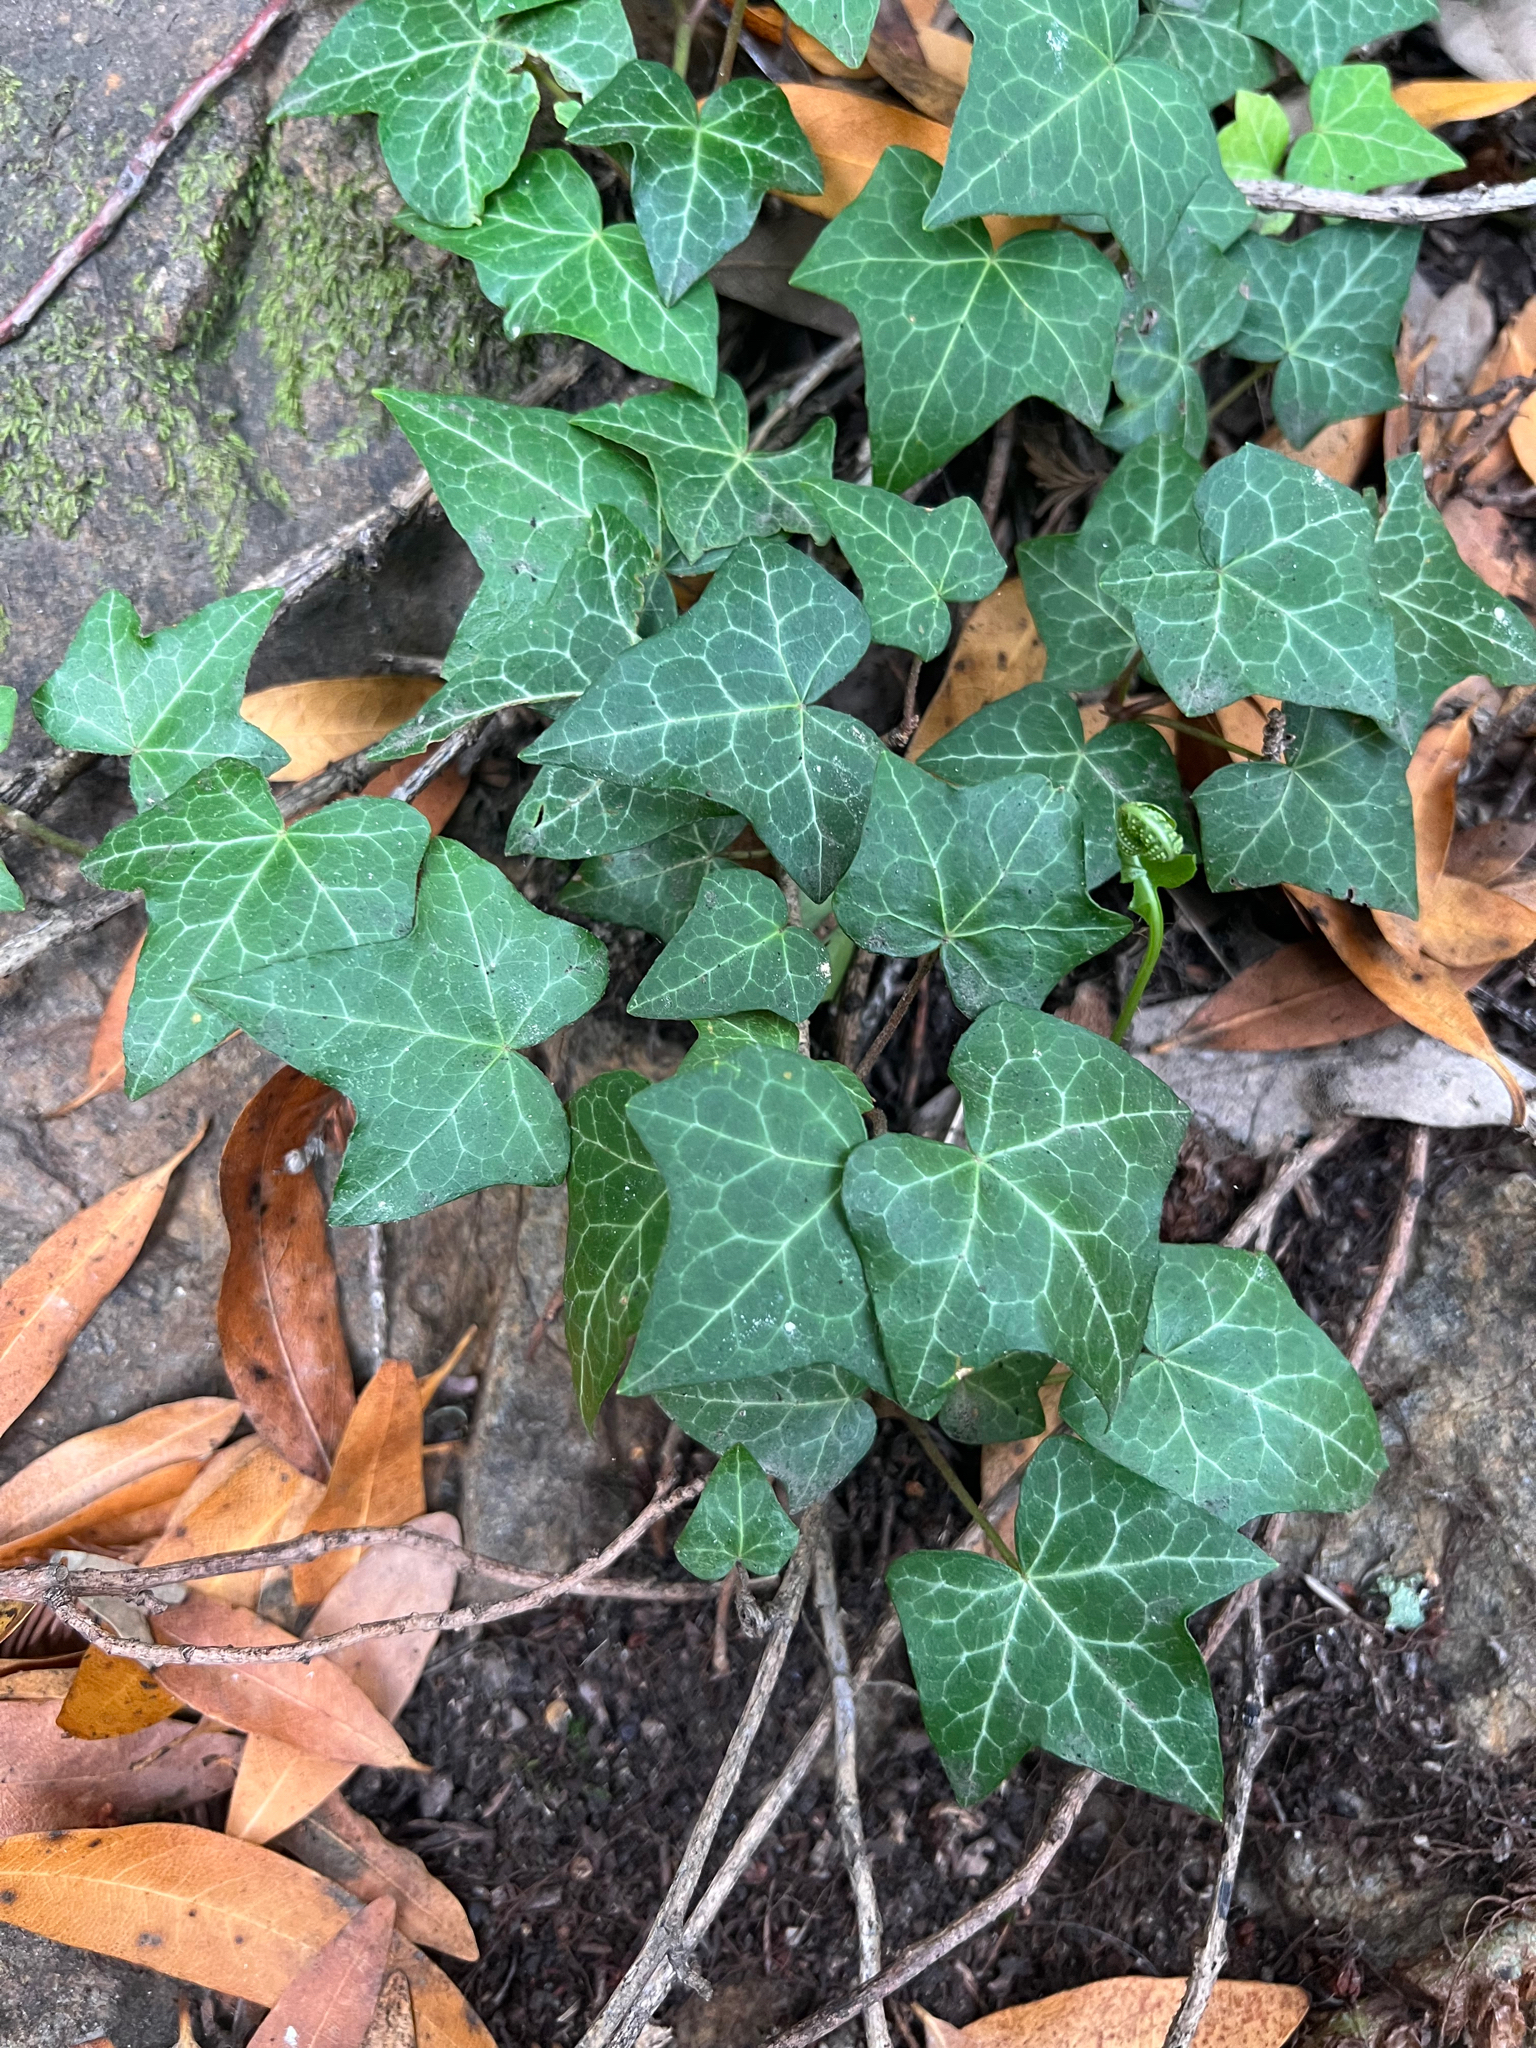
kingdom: Plantae
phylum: Tracheophyta
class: Magnoliopsida
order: Apiales
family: Araliaceae
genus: Hedera
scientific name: Hedera helix
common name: Ivy
